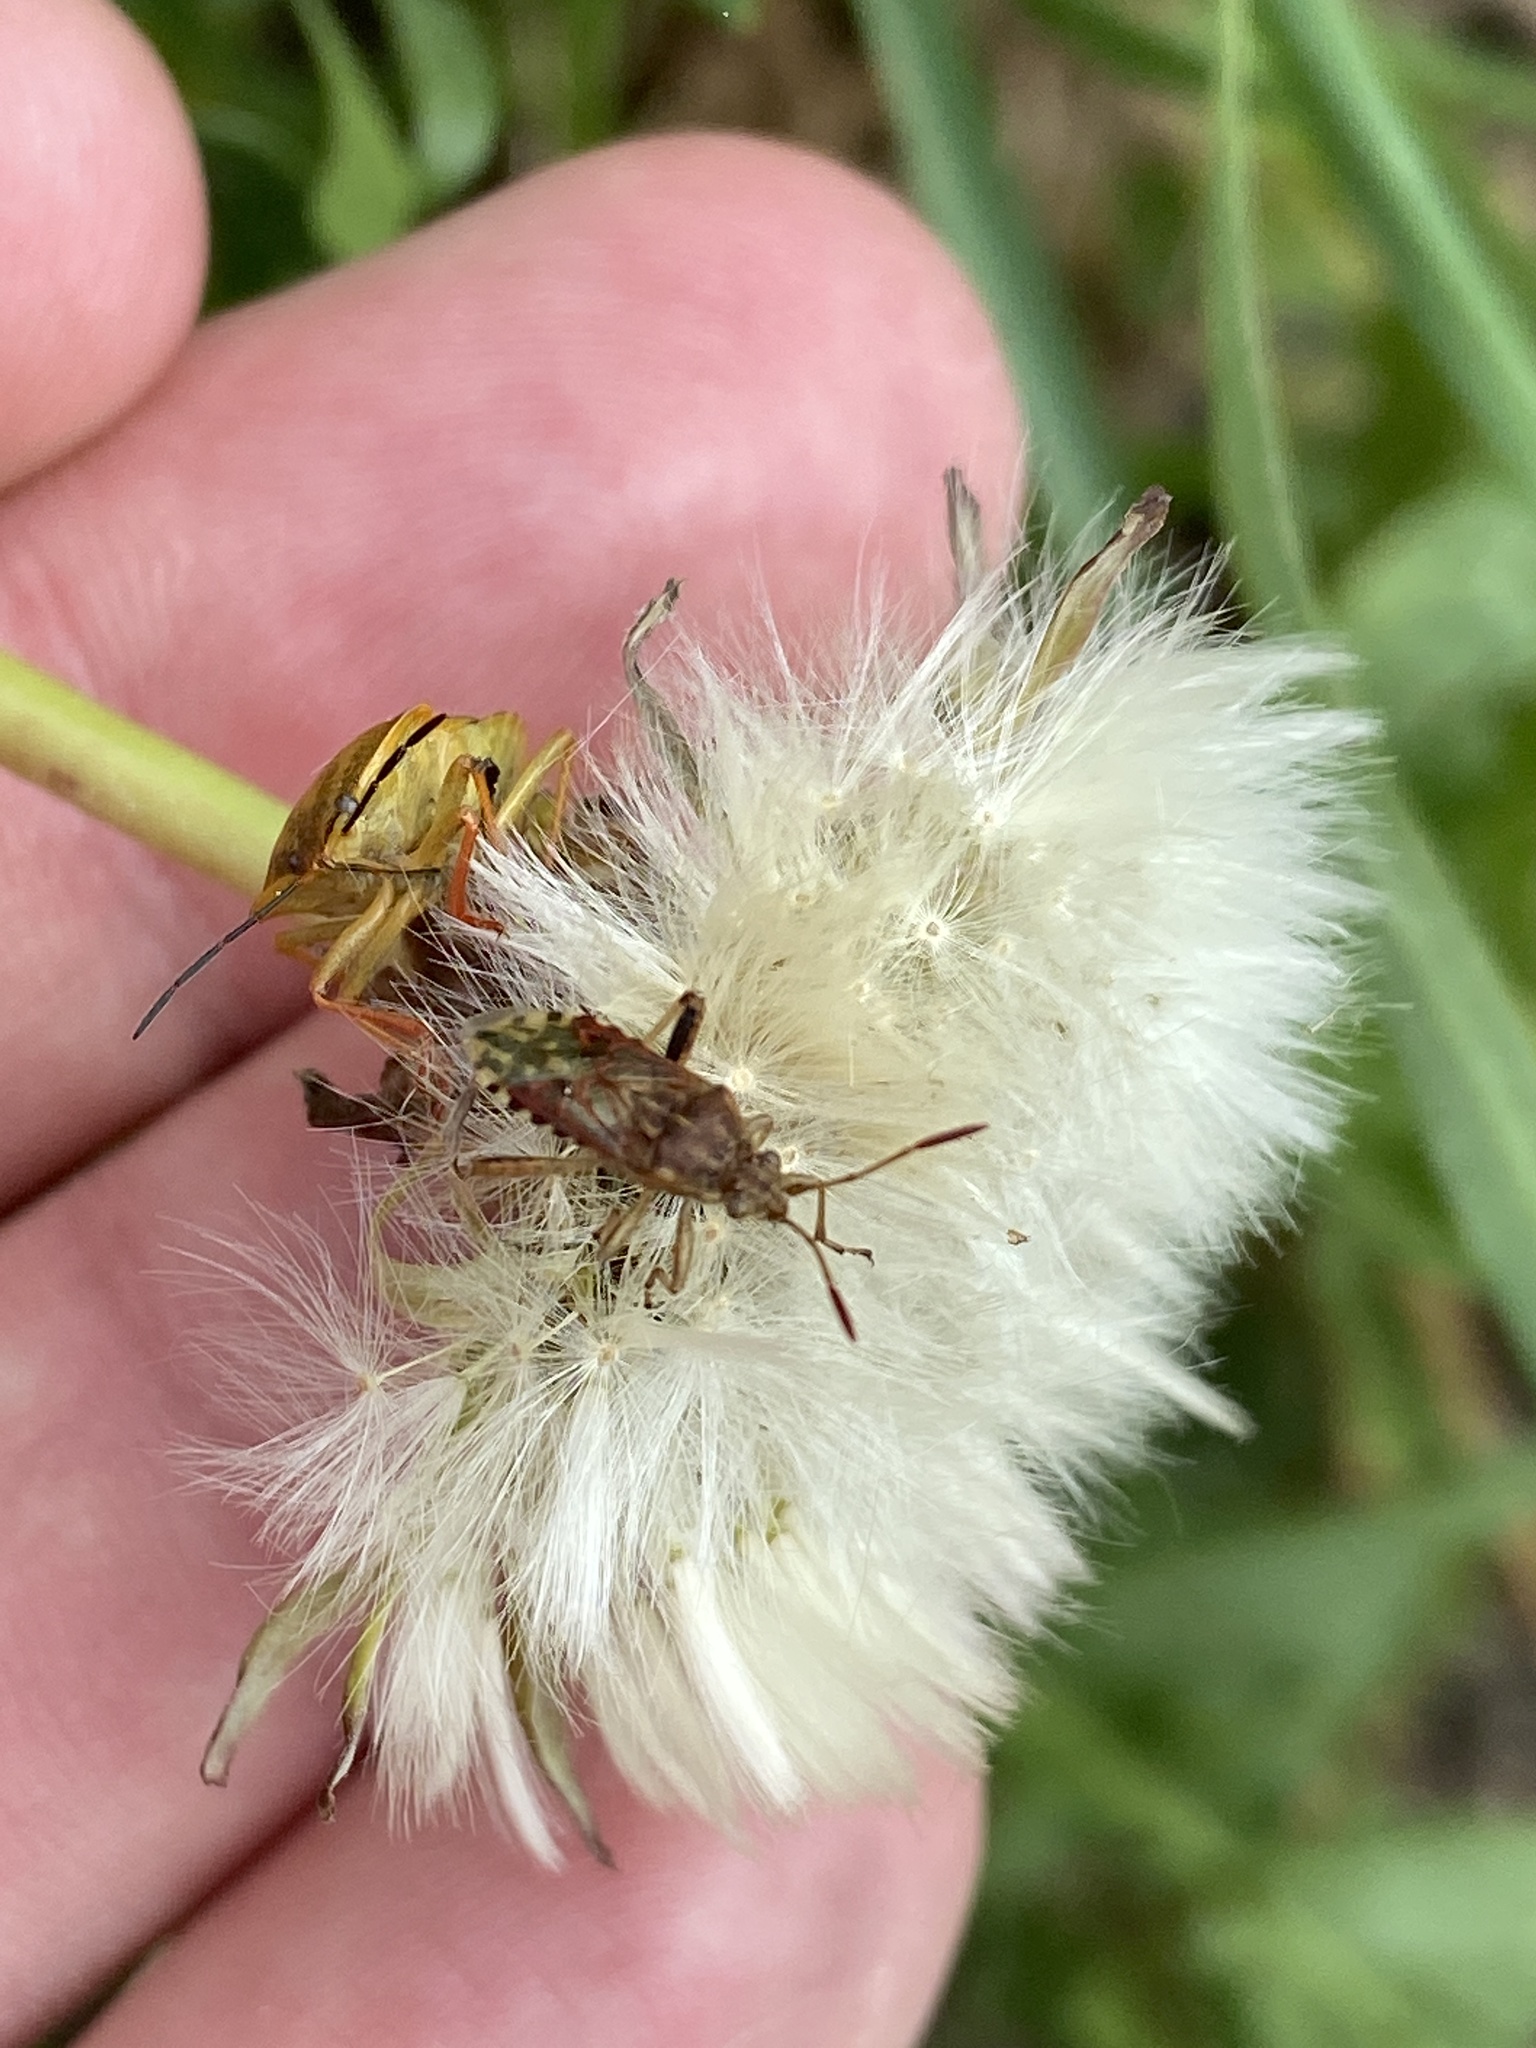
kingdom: Animalia
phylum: Arthropoda
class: Insecta
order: Hemiptera
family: Rhopalidae
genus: Stictopleurus
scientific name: Stictopleurus abutilon
